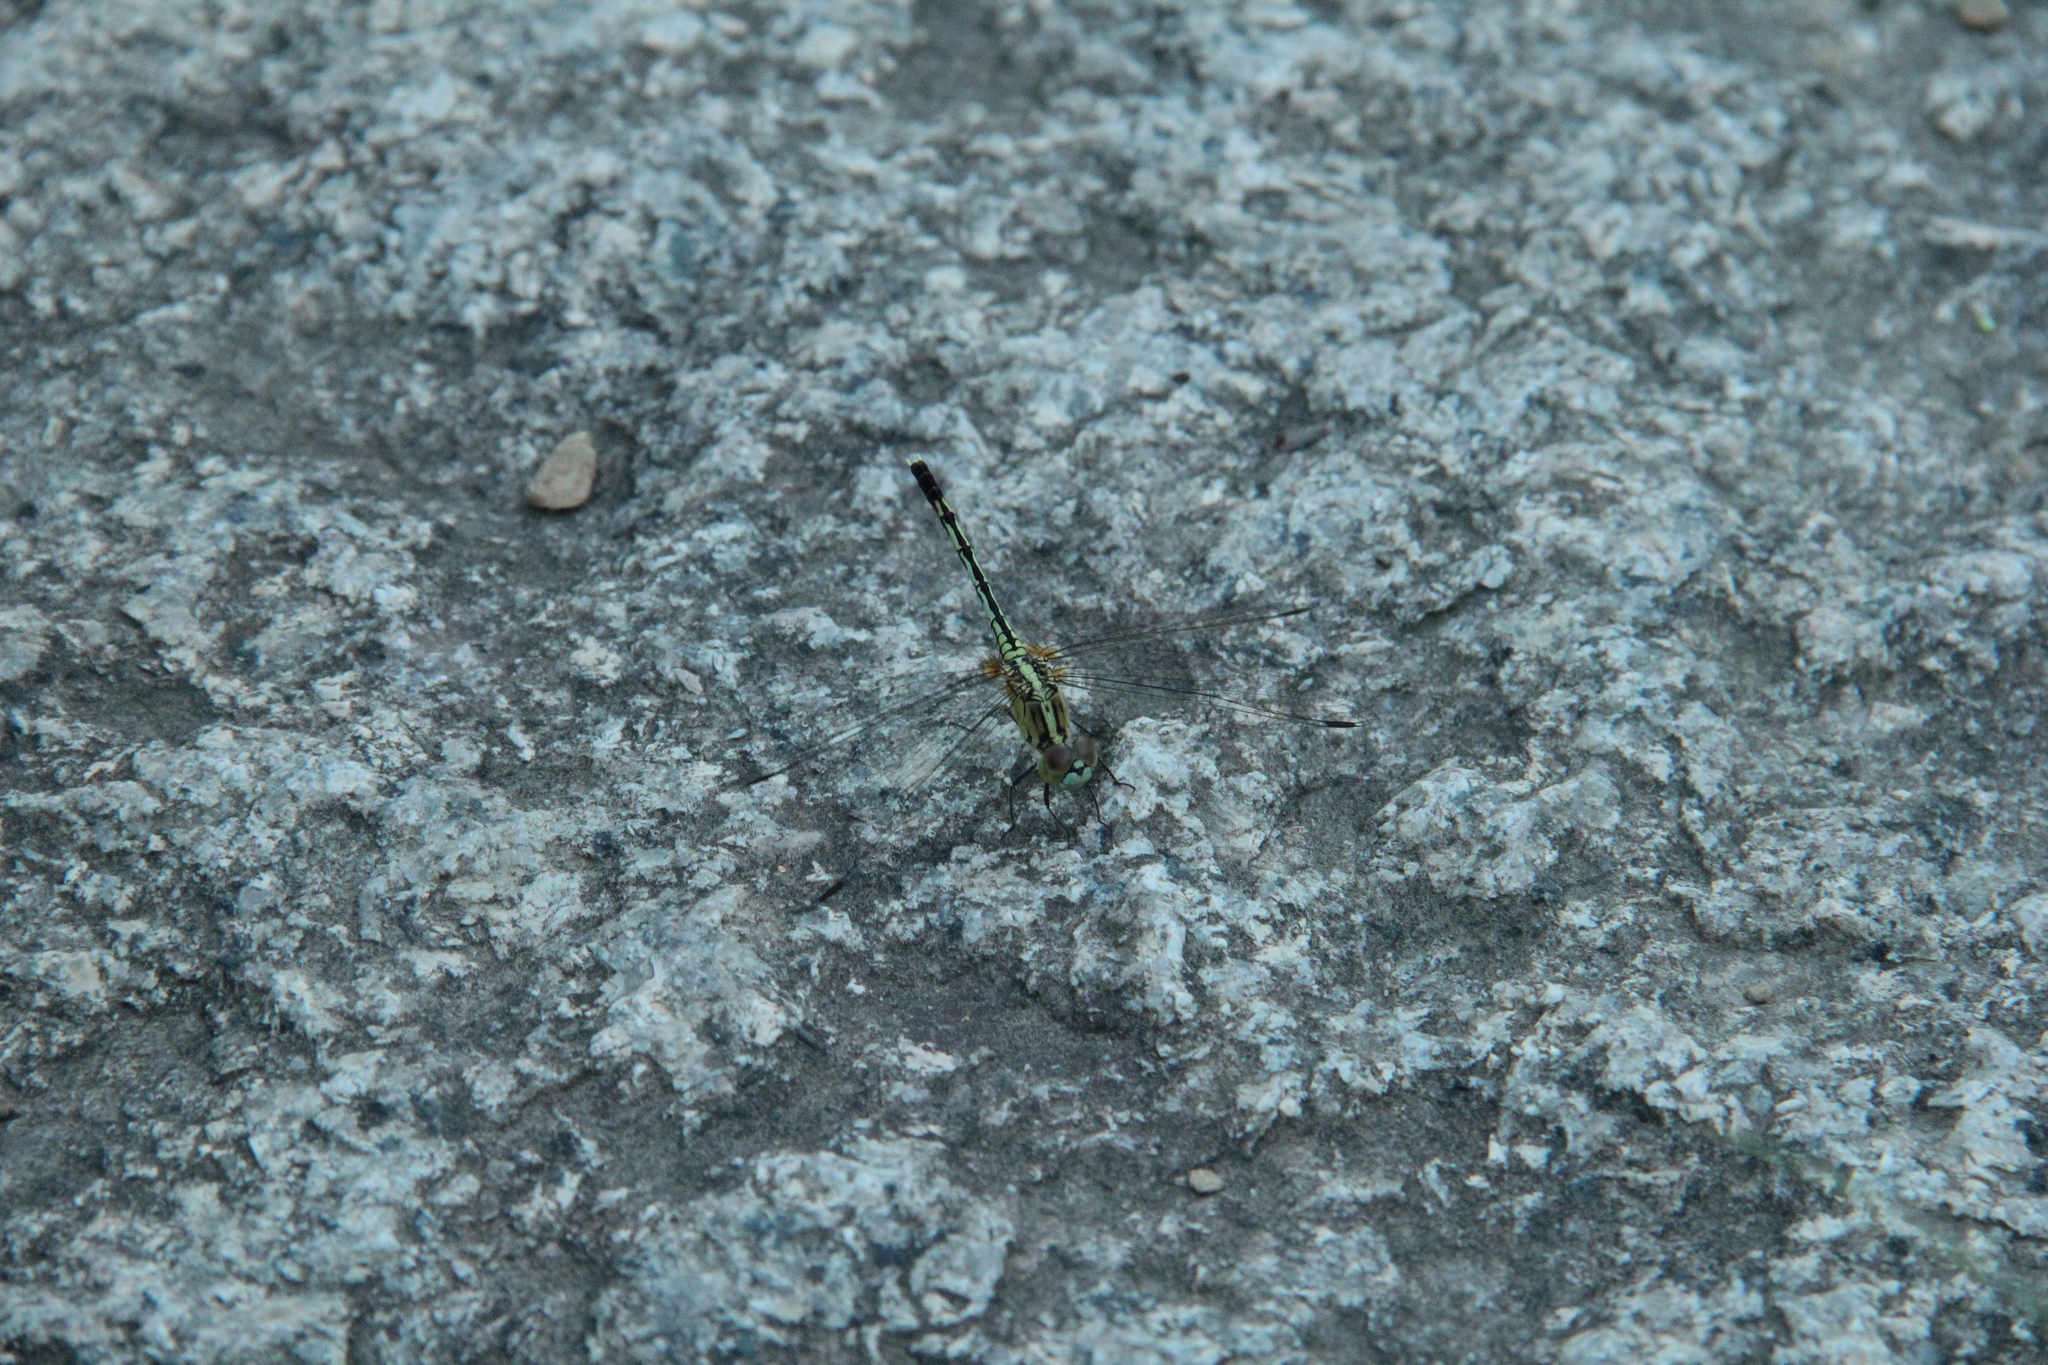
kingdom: Animalia
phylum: Arthropoda
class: Insecta
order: Odonata
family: Libellulidae
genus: Diplacodes
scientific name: Diplacodes trivialis
